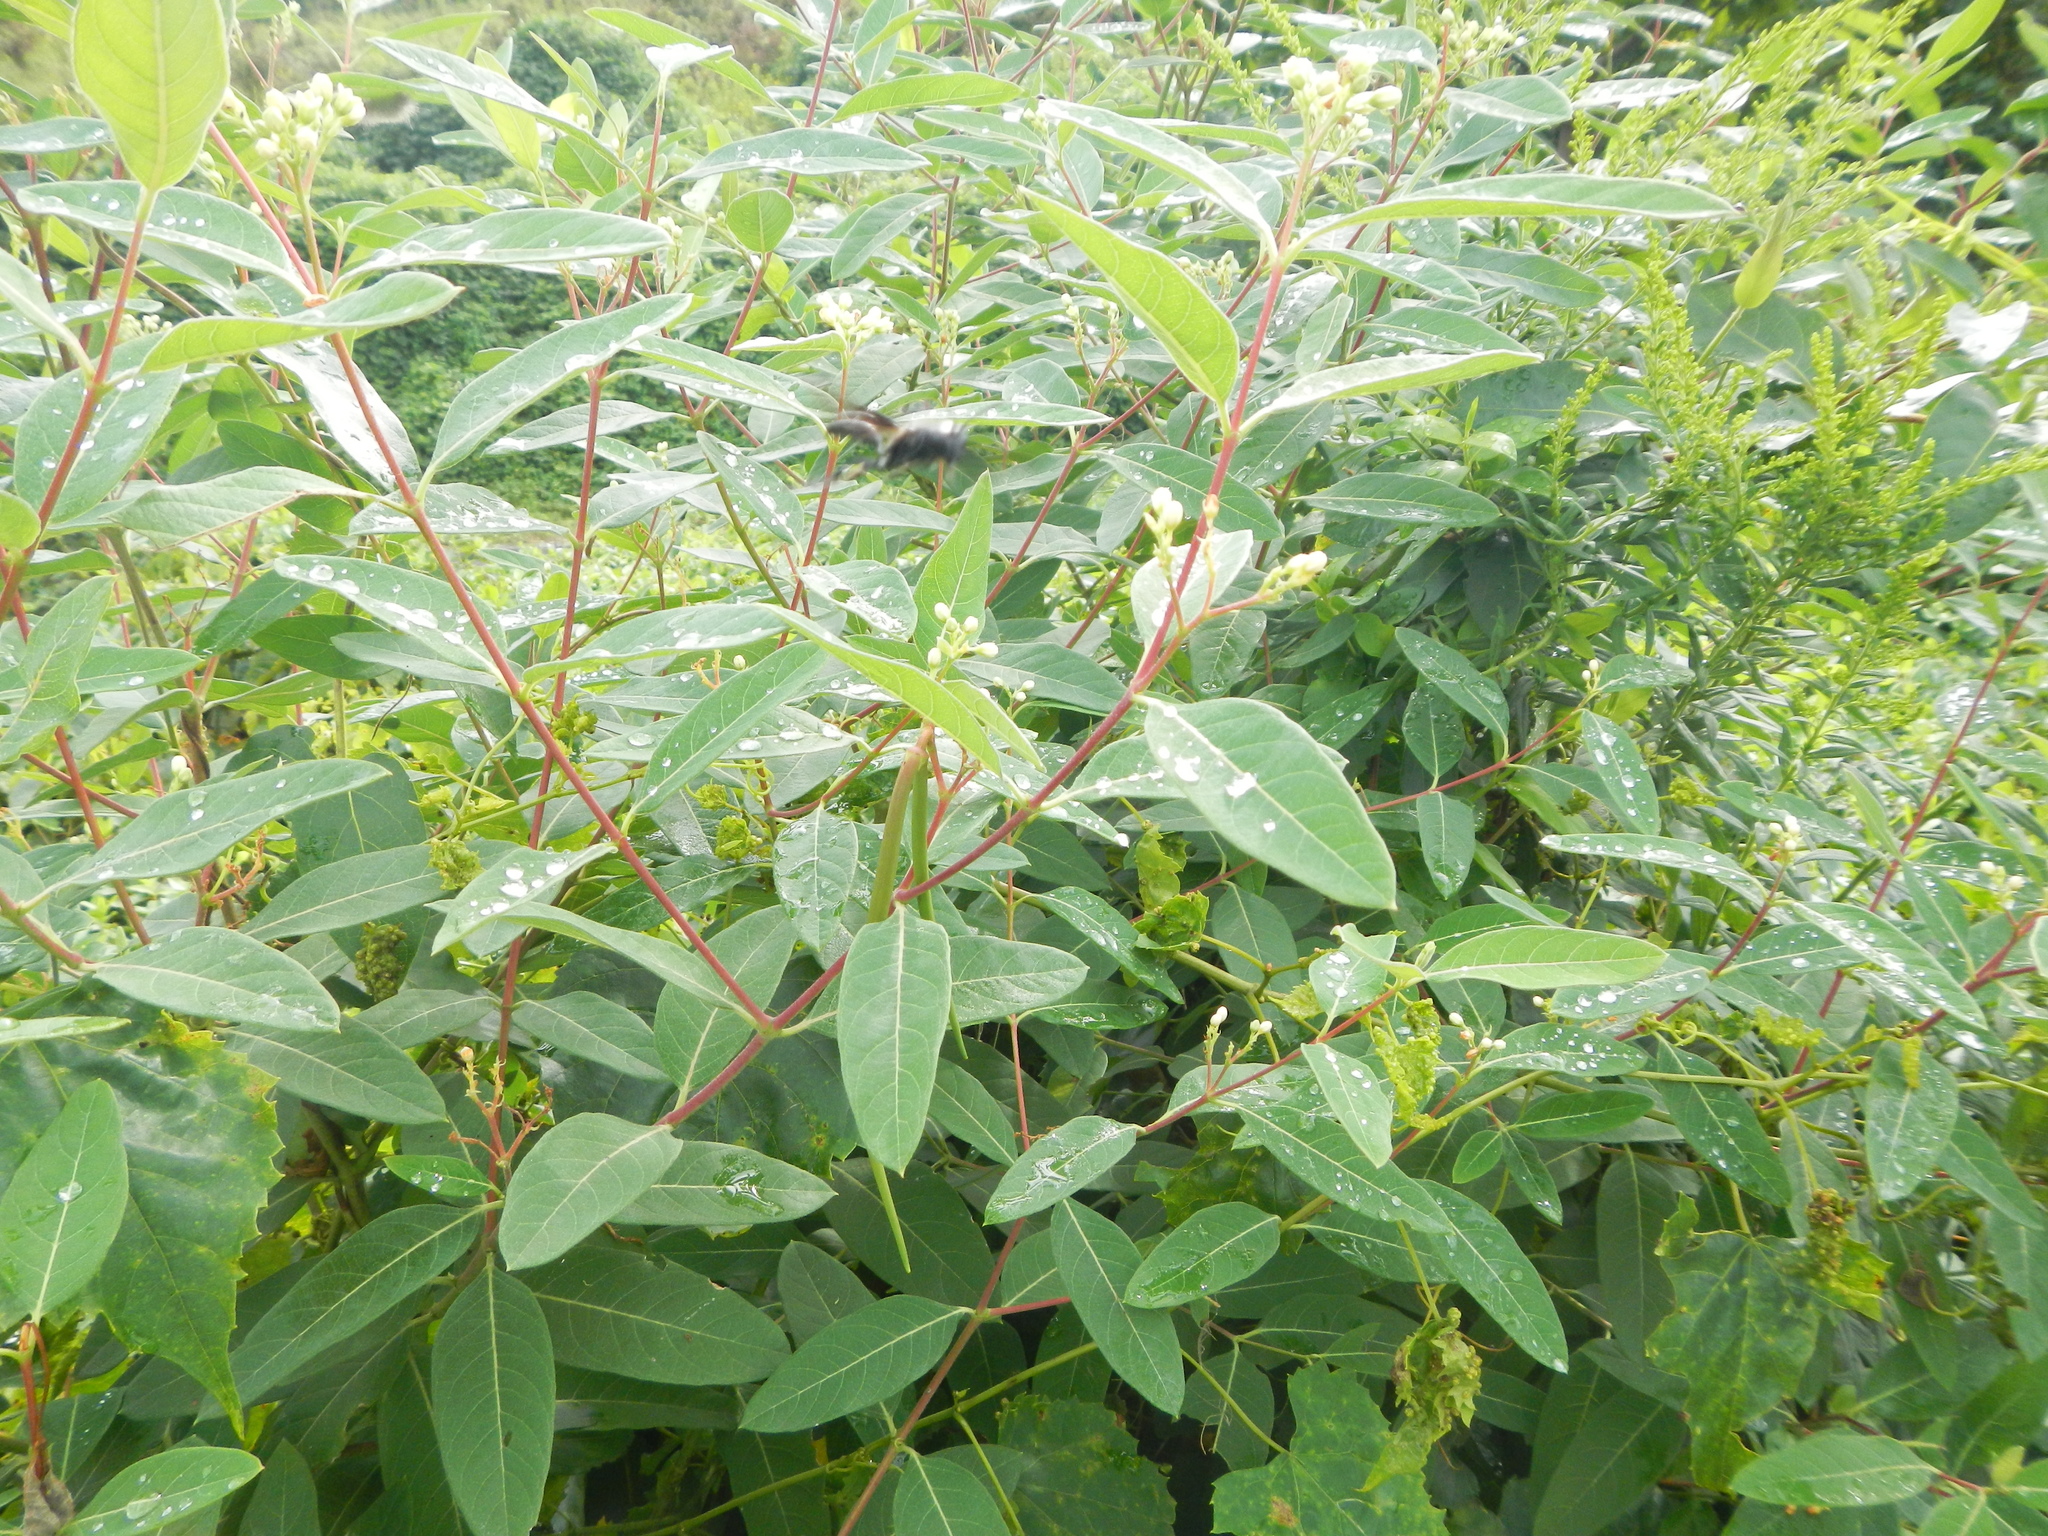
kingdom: Plantae
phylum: Tracheophyta
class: Magnoliopsida
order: Gentianales
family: Apocynaceae
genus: Apocynum
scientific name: Apocynum cannabinum
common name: Hemp dogbane
